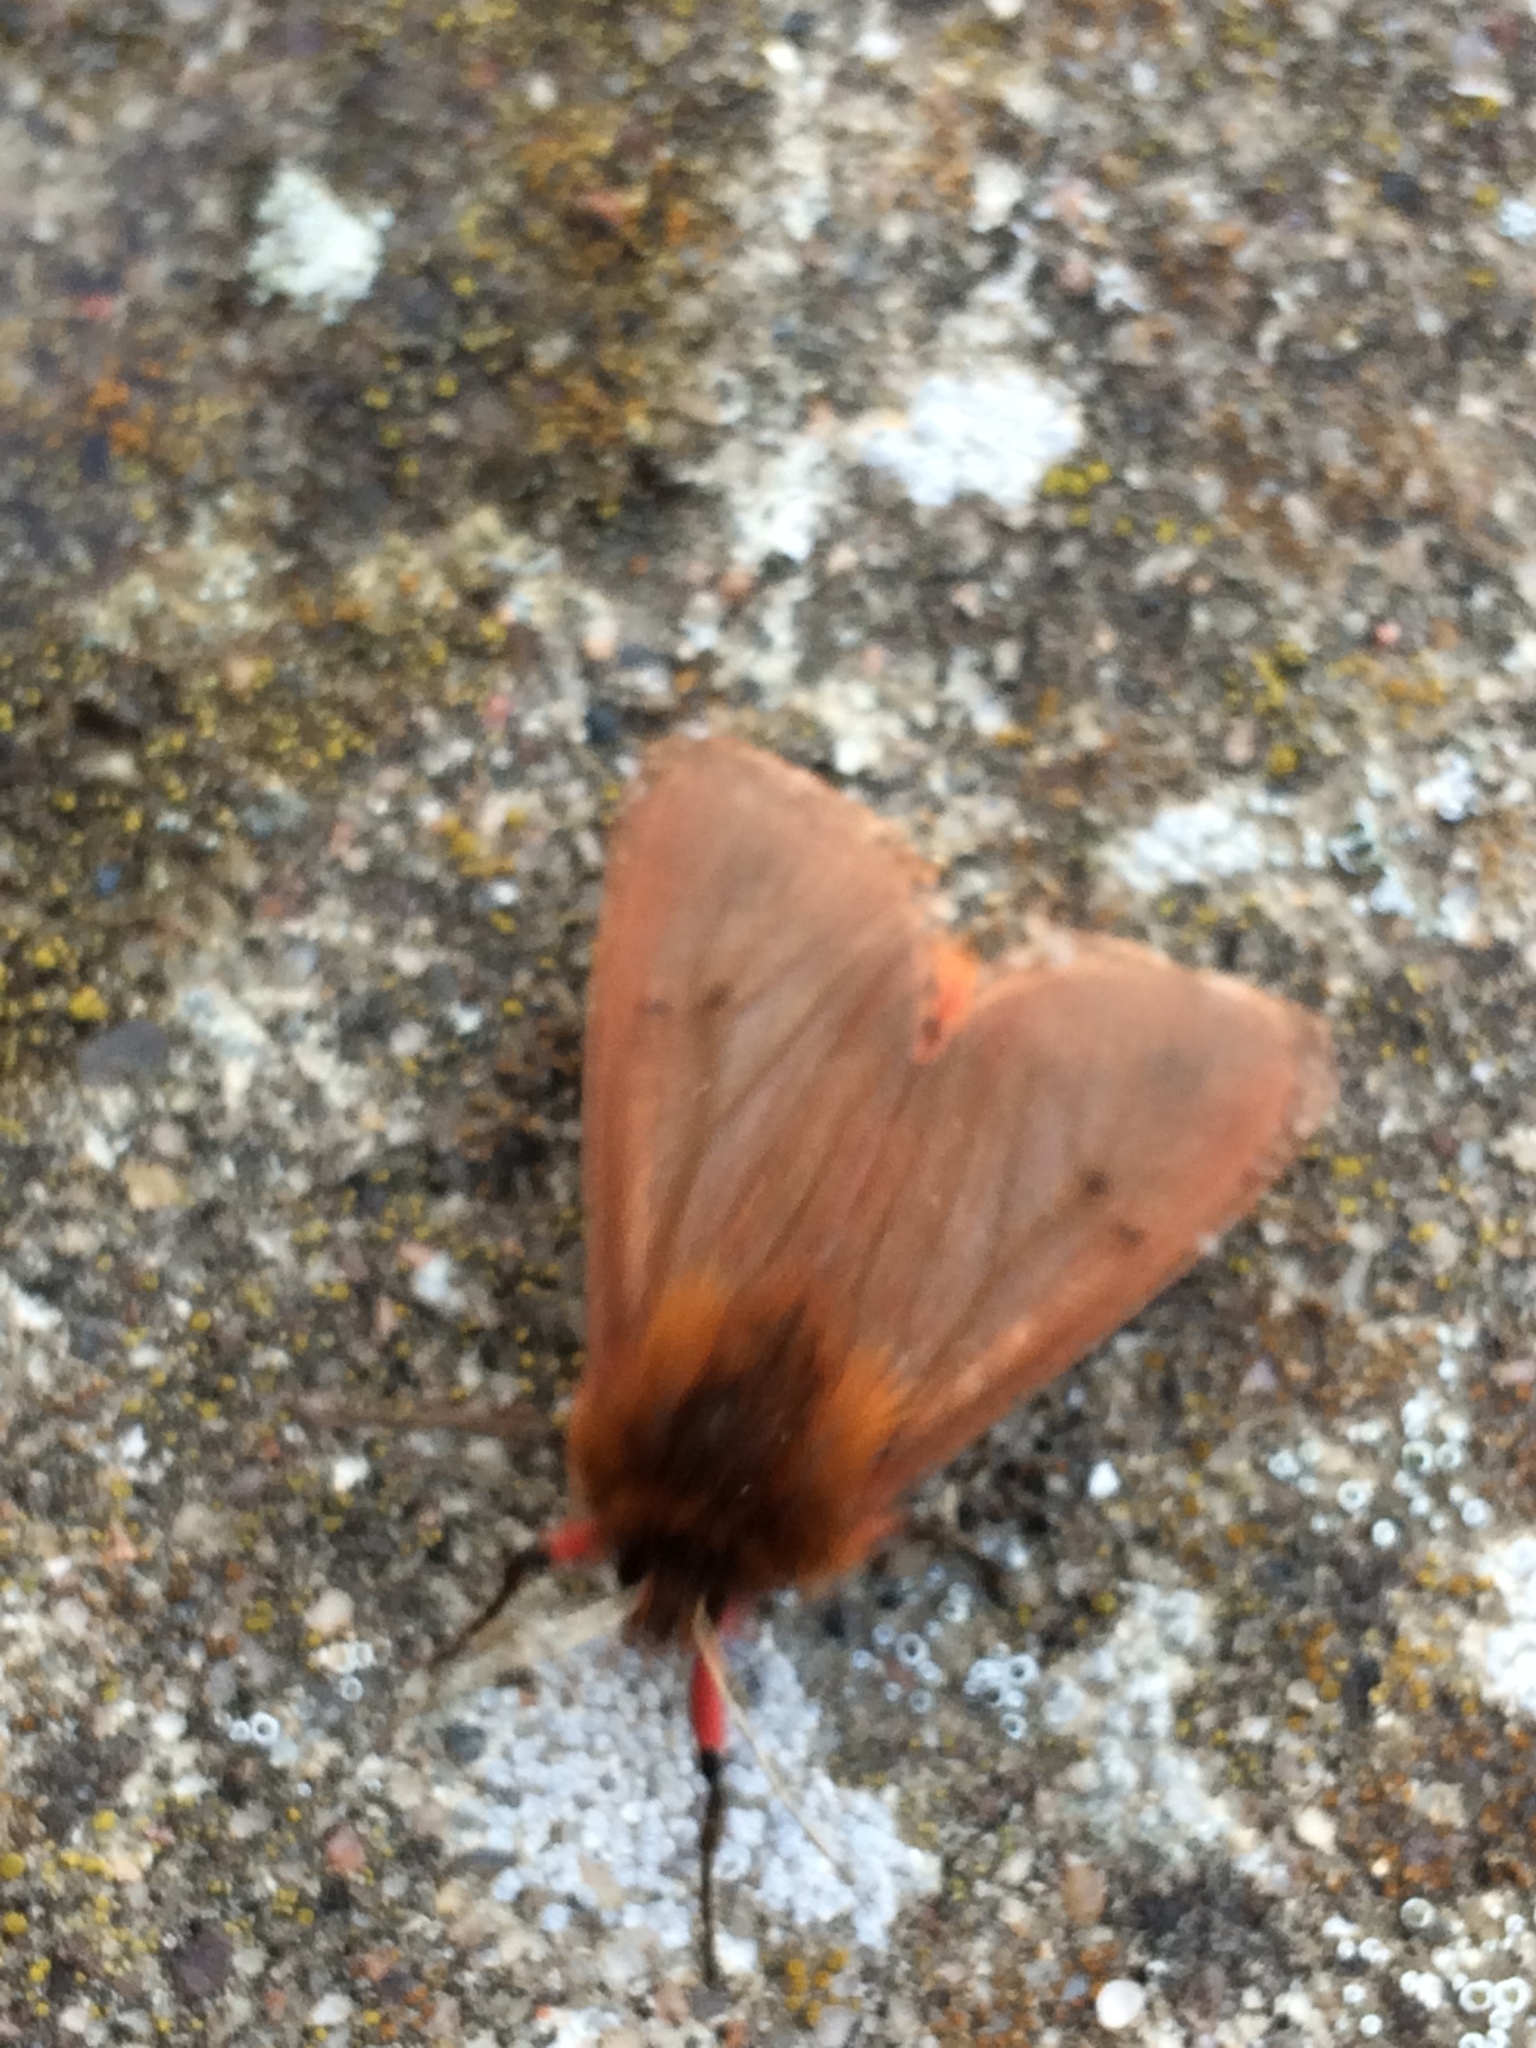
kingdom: Animalia
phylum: Arthropoda
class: Insecta
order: Lepidoptera
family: Erebidae
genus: Phragmatobia
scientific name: Phragmatobia fuliginosa
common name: Ruby tiger
